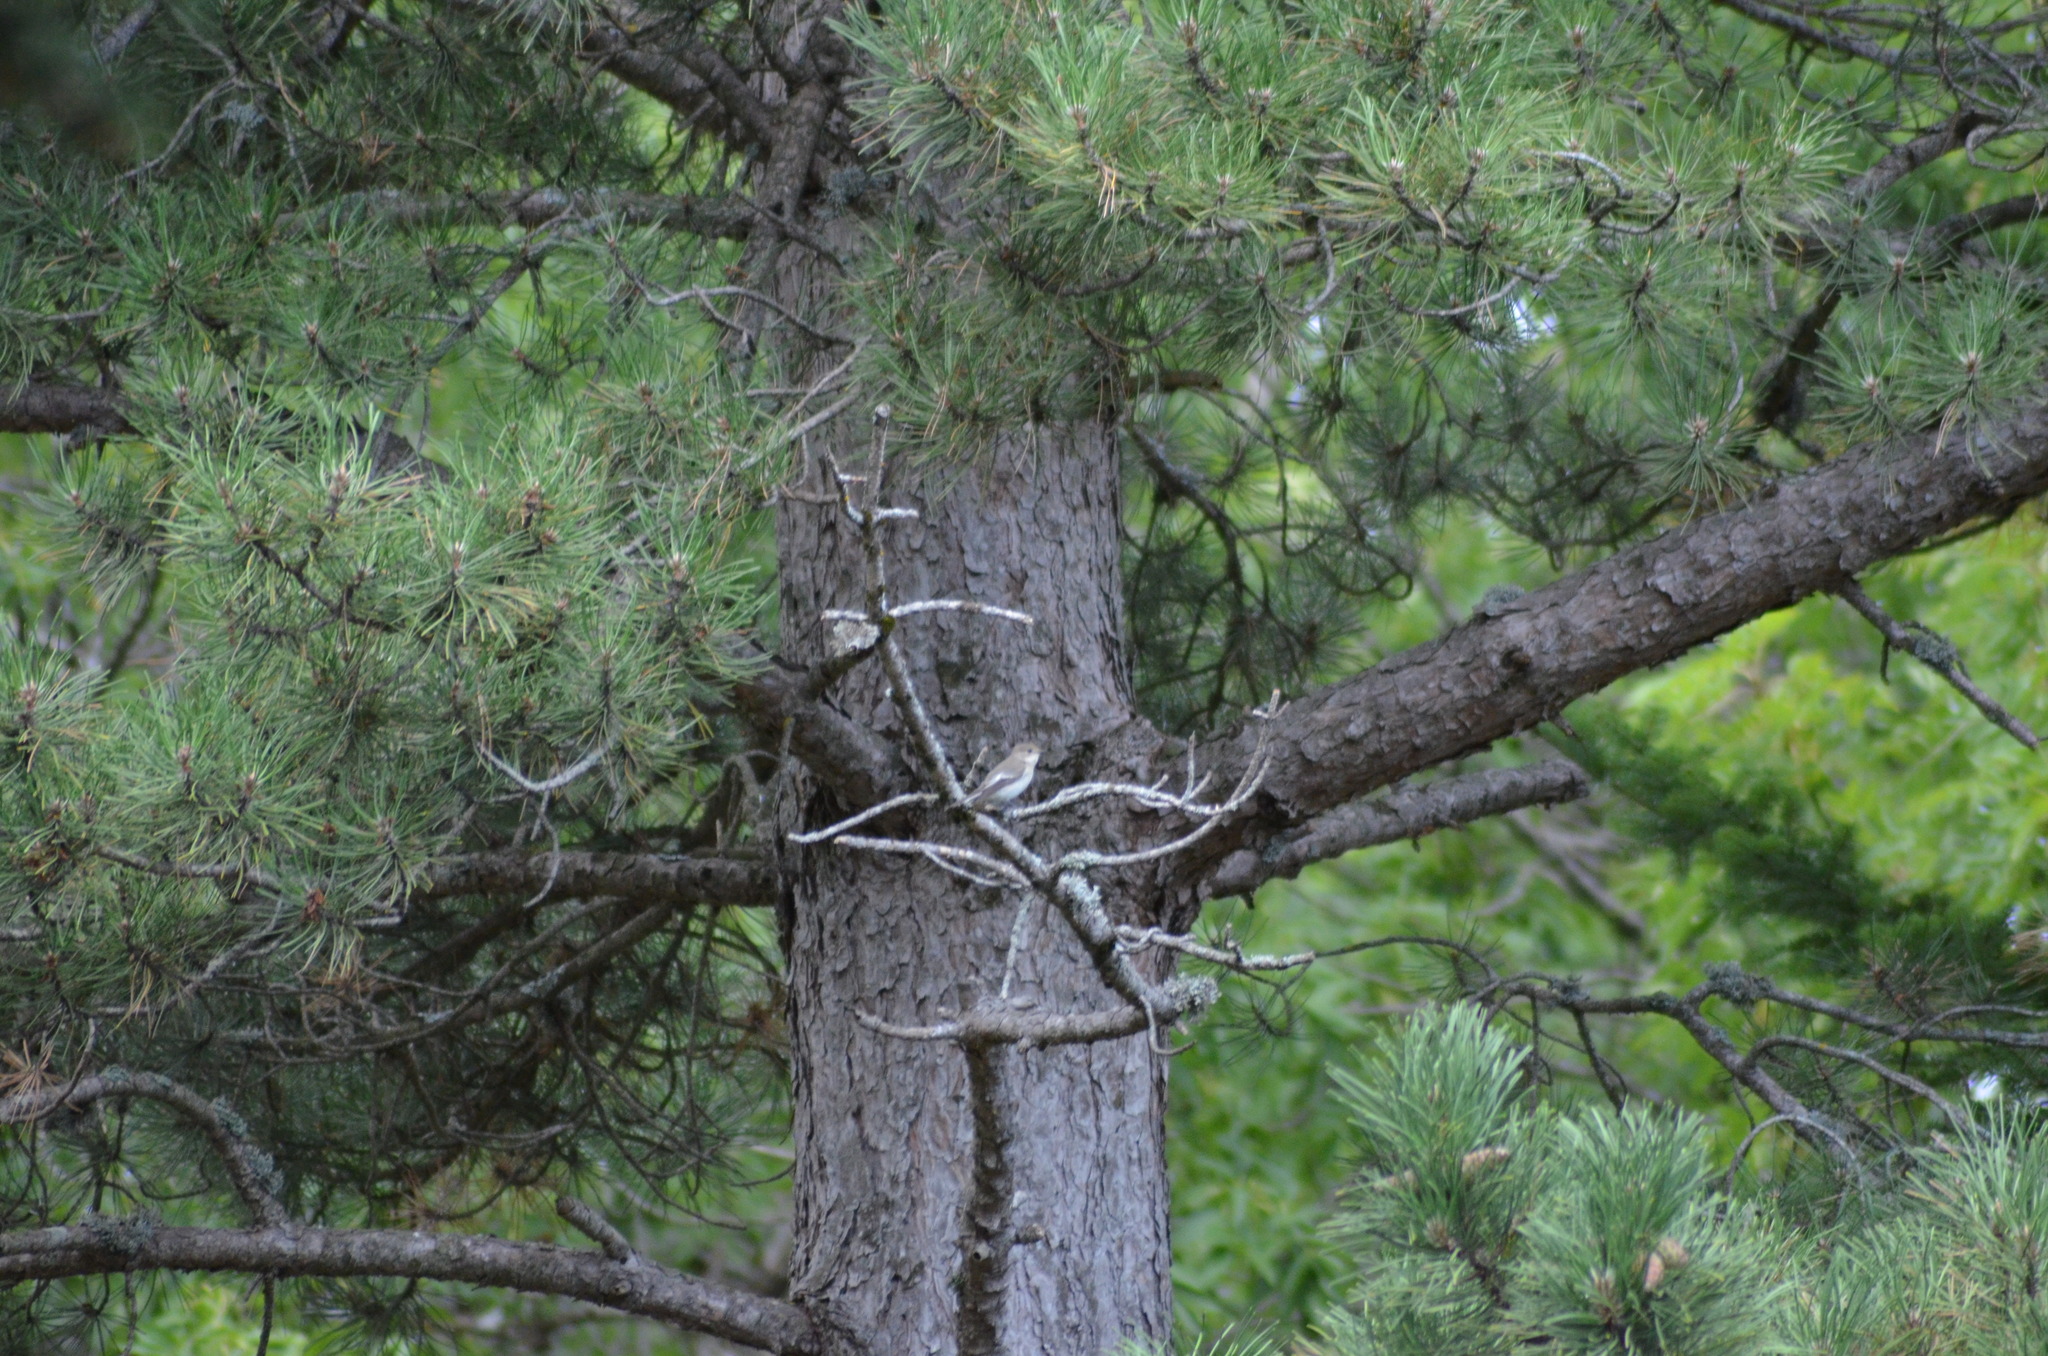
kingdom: Animalia
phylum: Chordata
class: Aves
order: Passeriformes
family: Muscicapidae
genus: Ficedula
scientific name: Ficedula hypoleuca
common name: European pied flycatcher
